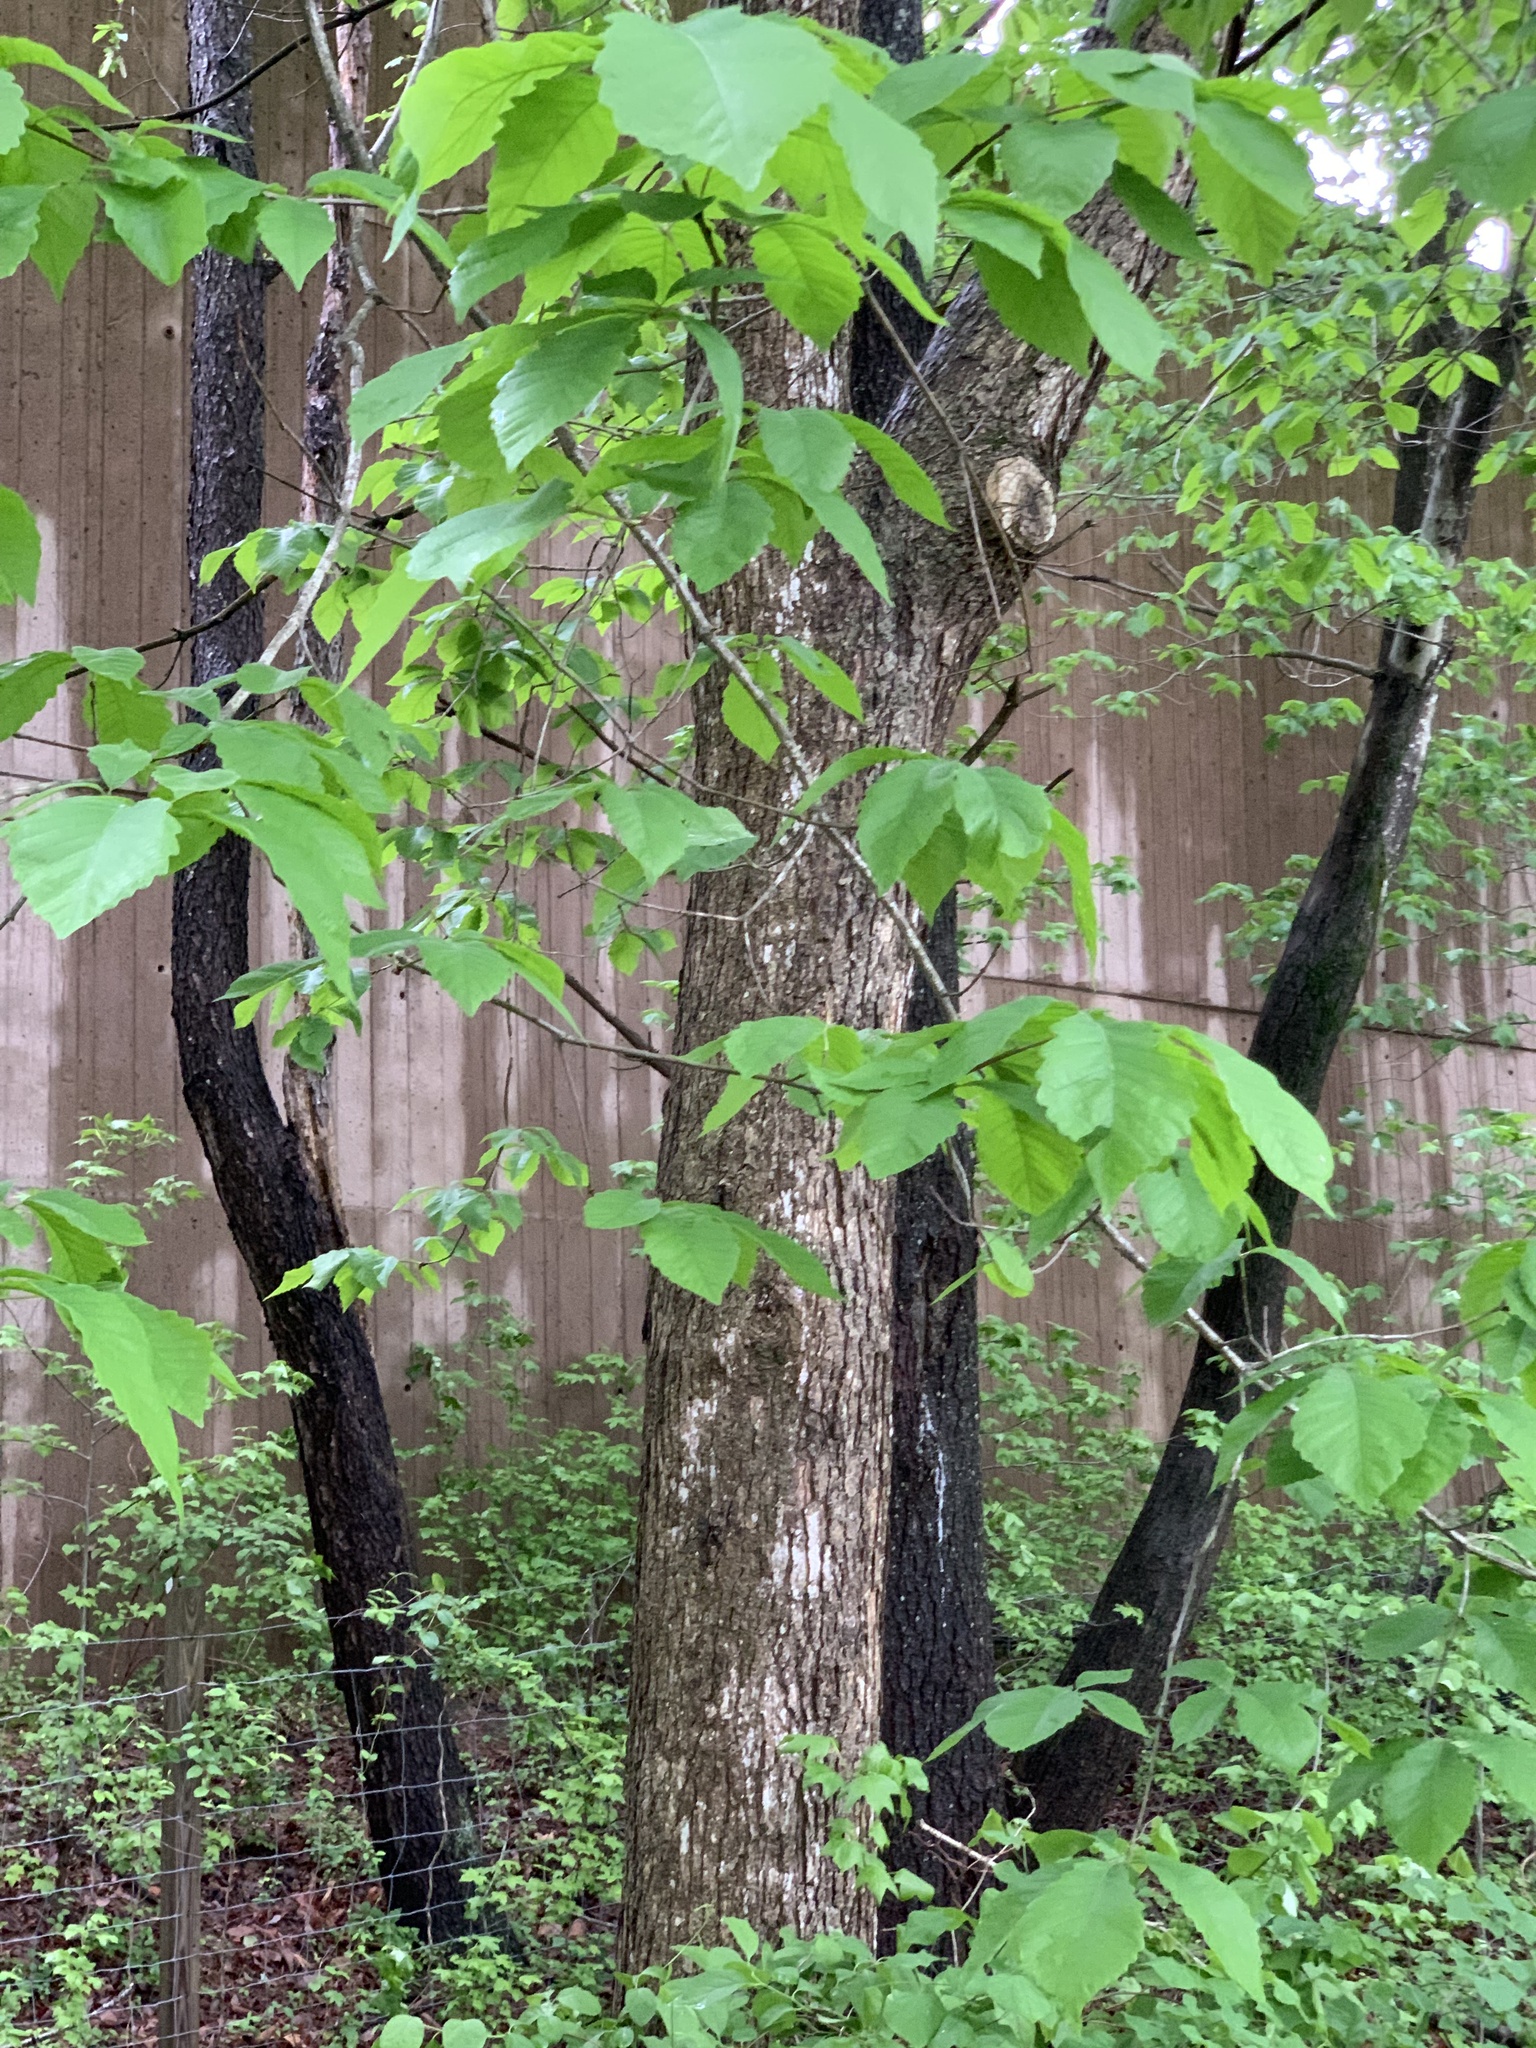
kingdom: Plantae
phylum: Tracheophyta
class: Magnoliopsida
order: Fagales
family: Fagaceae
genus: Quercus
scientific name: Quercus michauxii
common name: Swamp chestnut oak
